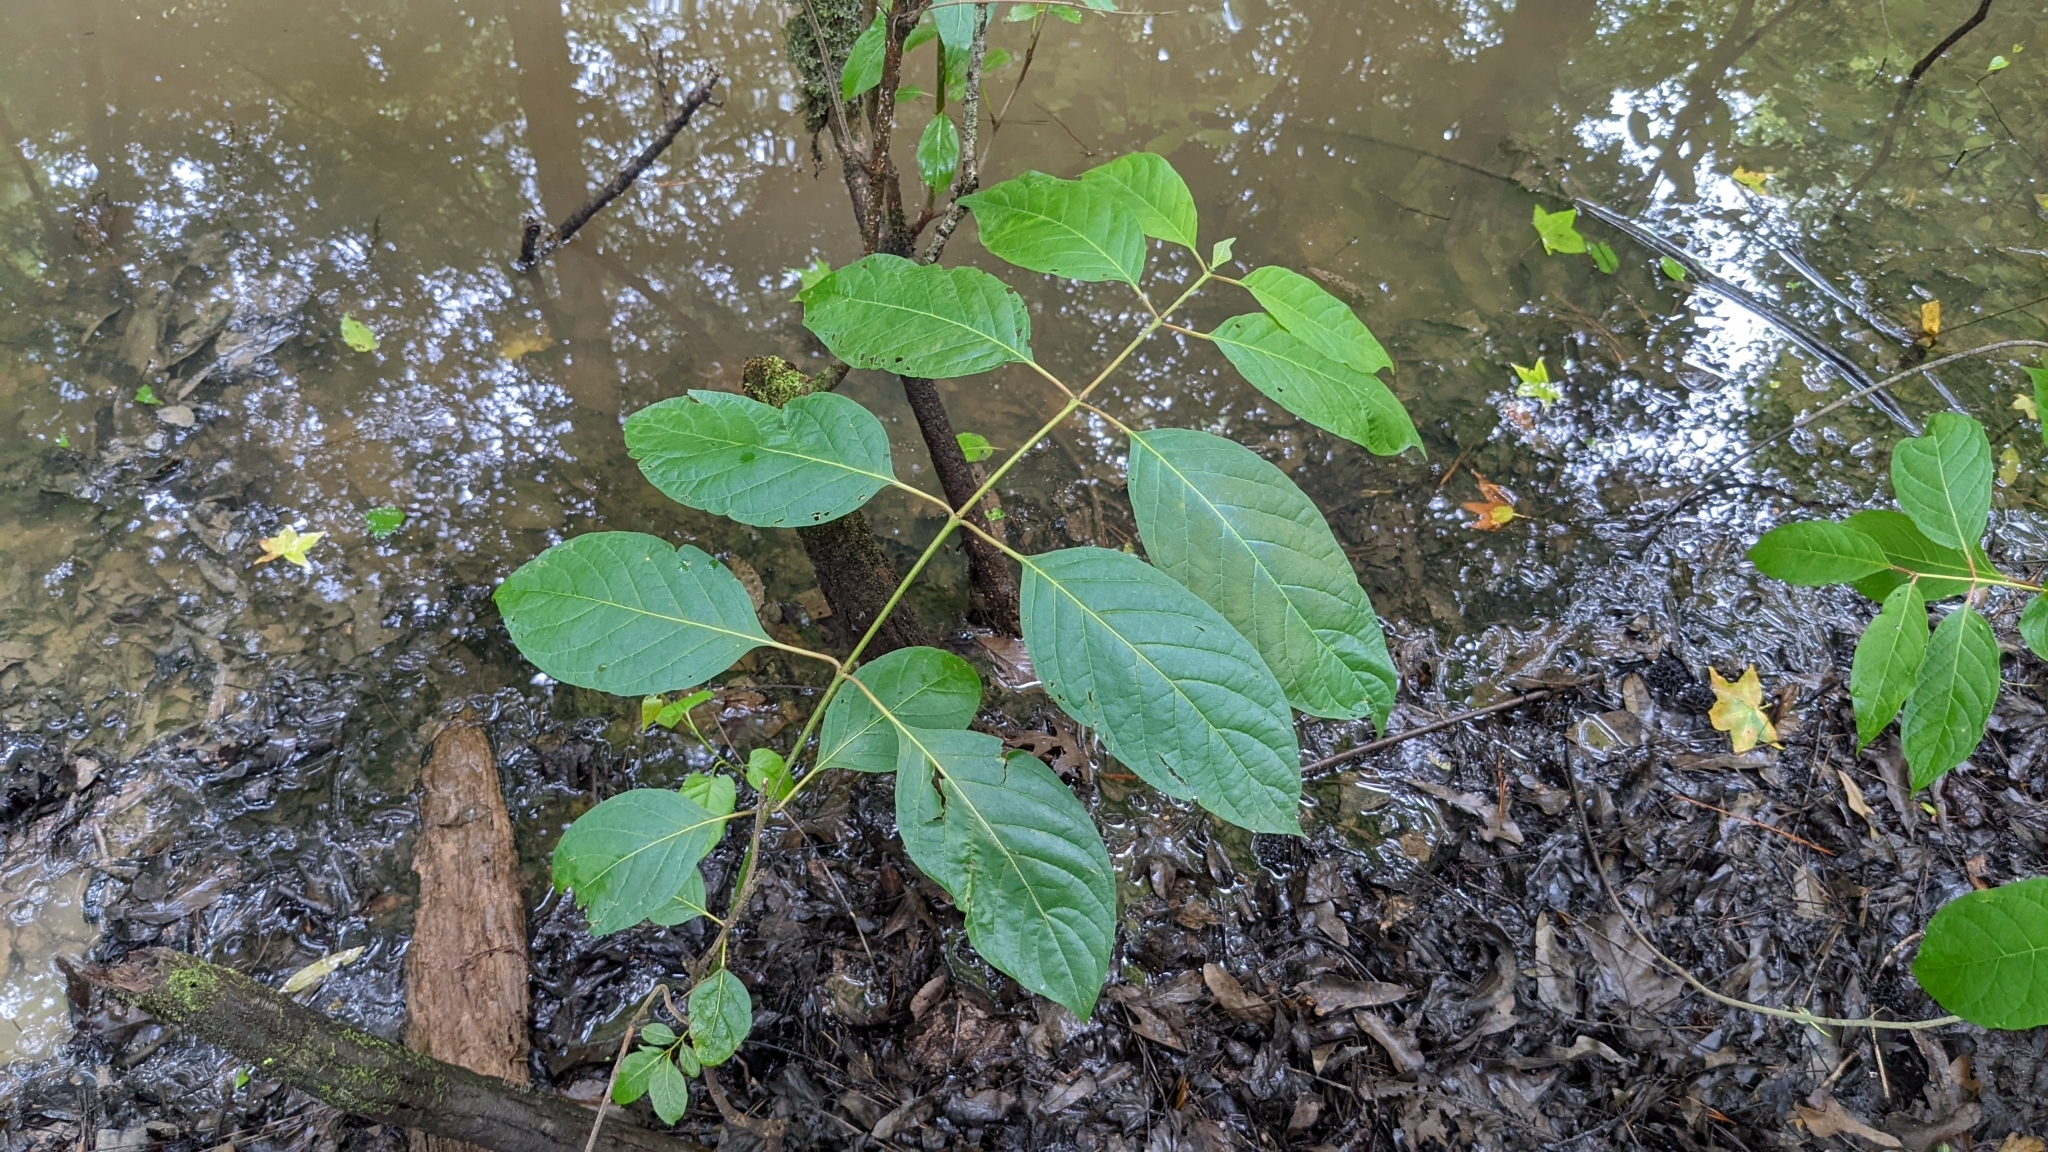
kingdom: Plantae
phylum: Tracheophyta
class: Magnoliopsida
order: Gentianales
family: Rubiaceae
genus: Cephalanthus
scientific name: Cephalanthus occidentalis
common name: Button-willow
